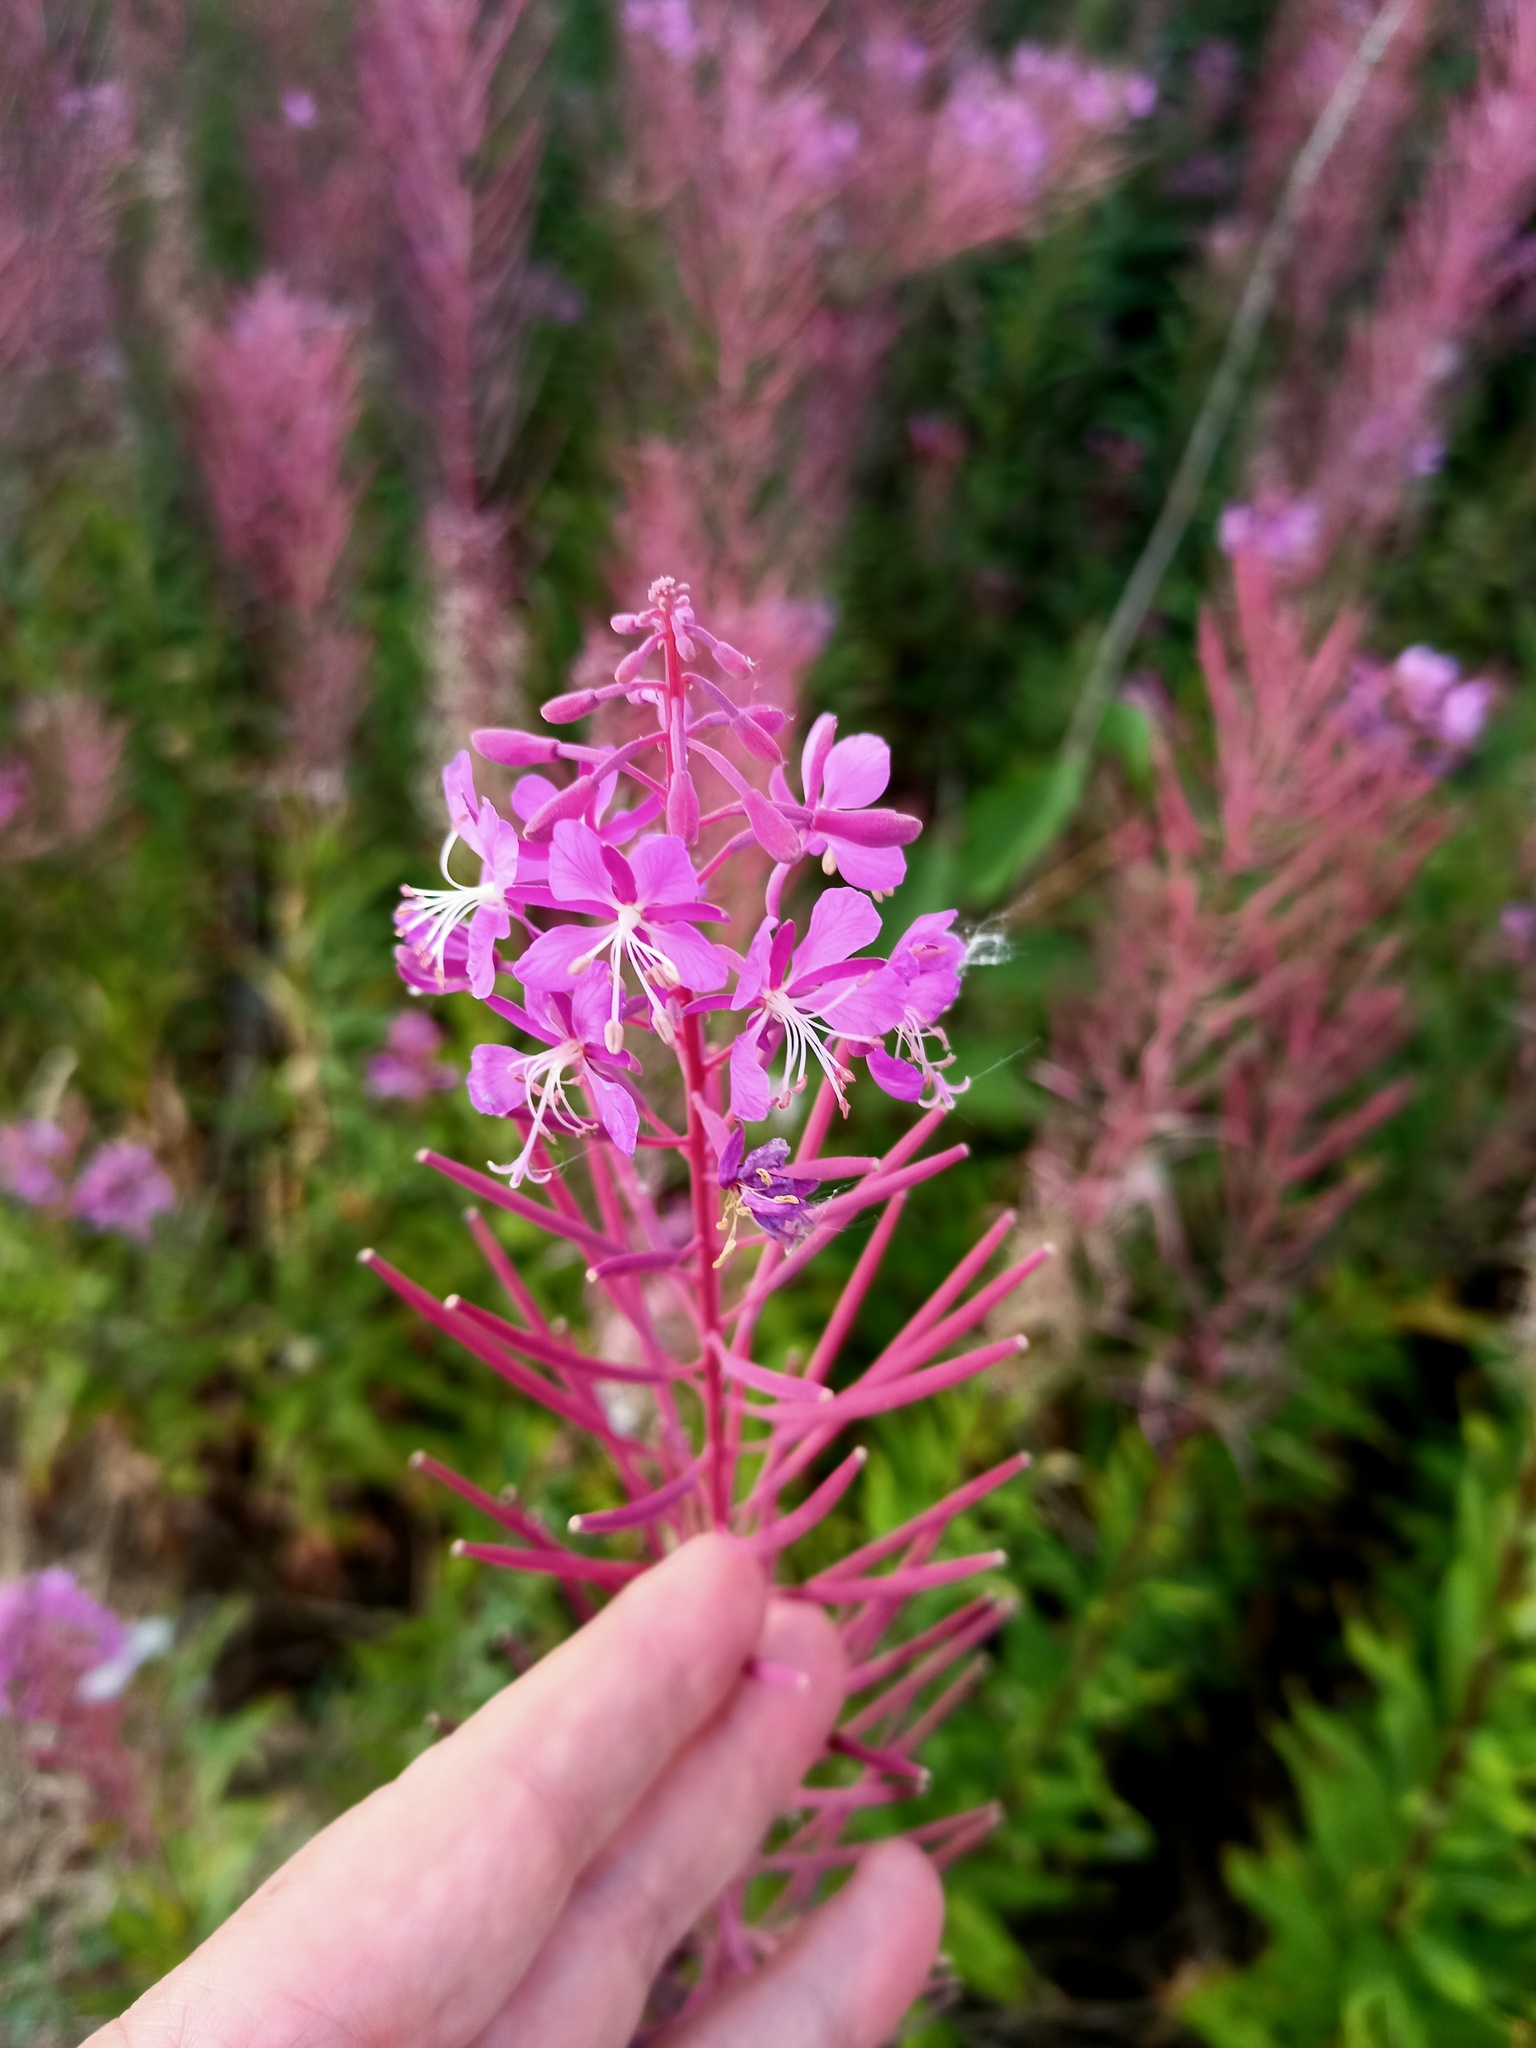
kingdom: Plantae
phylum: Tracheophyta
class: Magnoliopsida
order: Myrtales
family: Onagraceae
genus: Chamaenerion
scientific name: Chamaenerion angustifolium
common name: Fireweed
